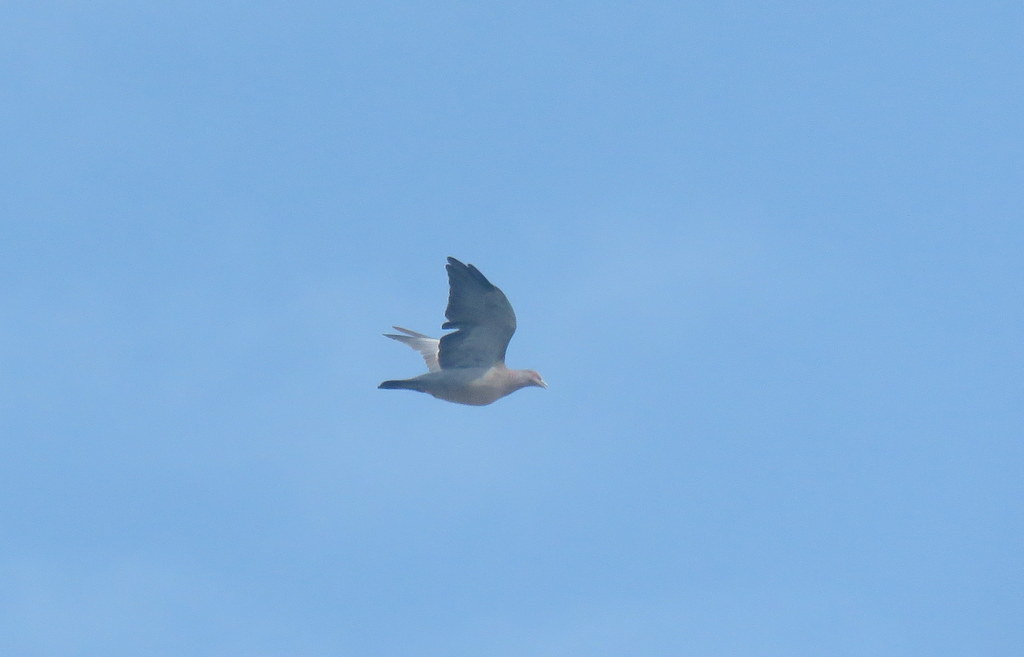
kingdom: Animalia
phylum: Chordata
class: Aves
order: Columbiformes
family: Columbidae
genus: Patagioenas
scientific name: Patagioenas picazuro
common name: Picazuro pigeon
